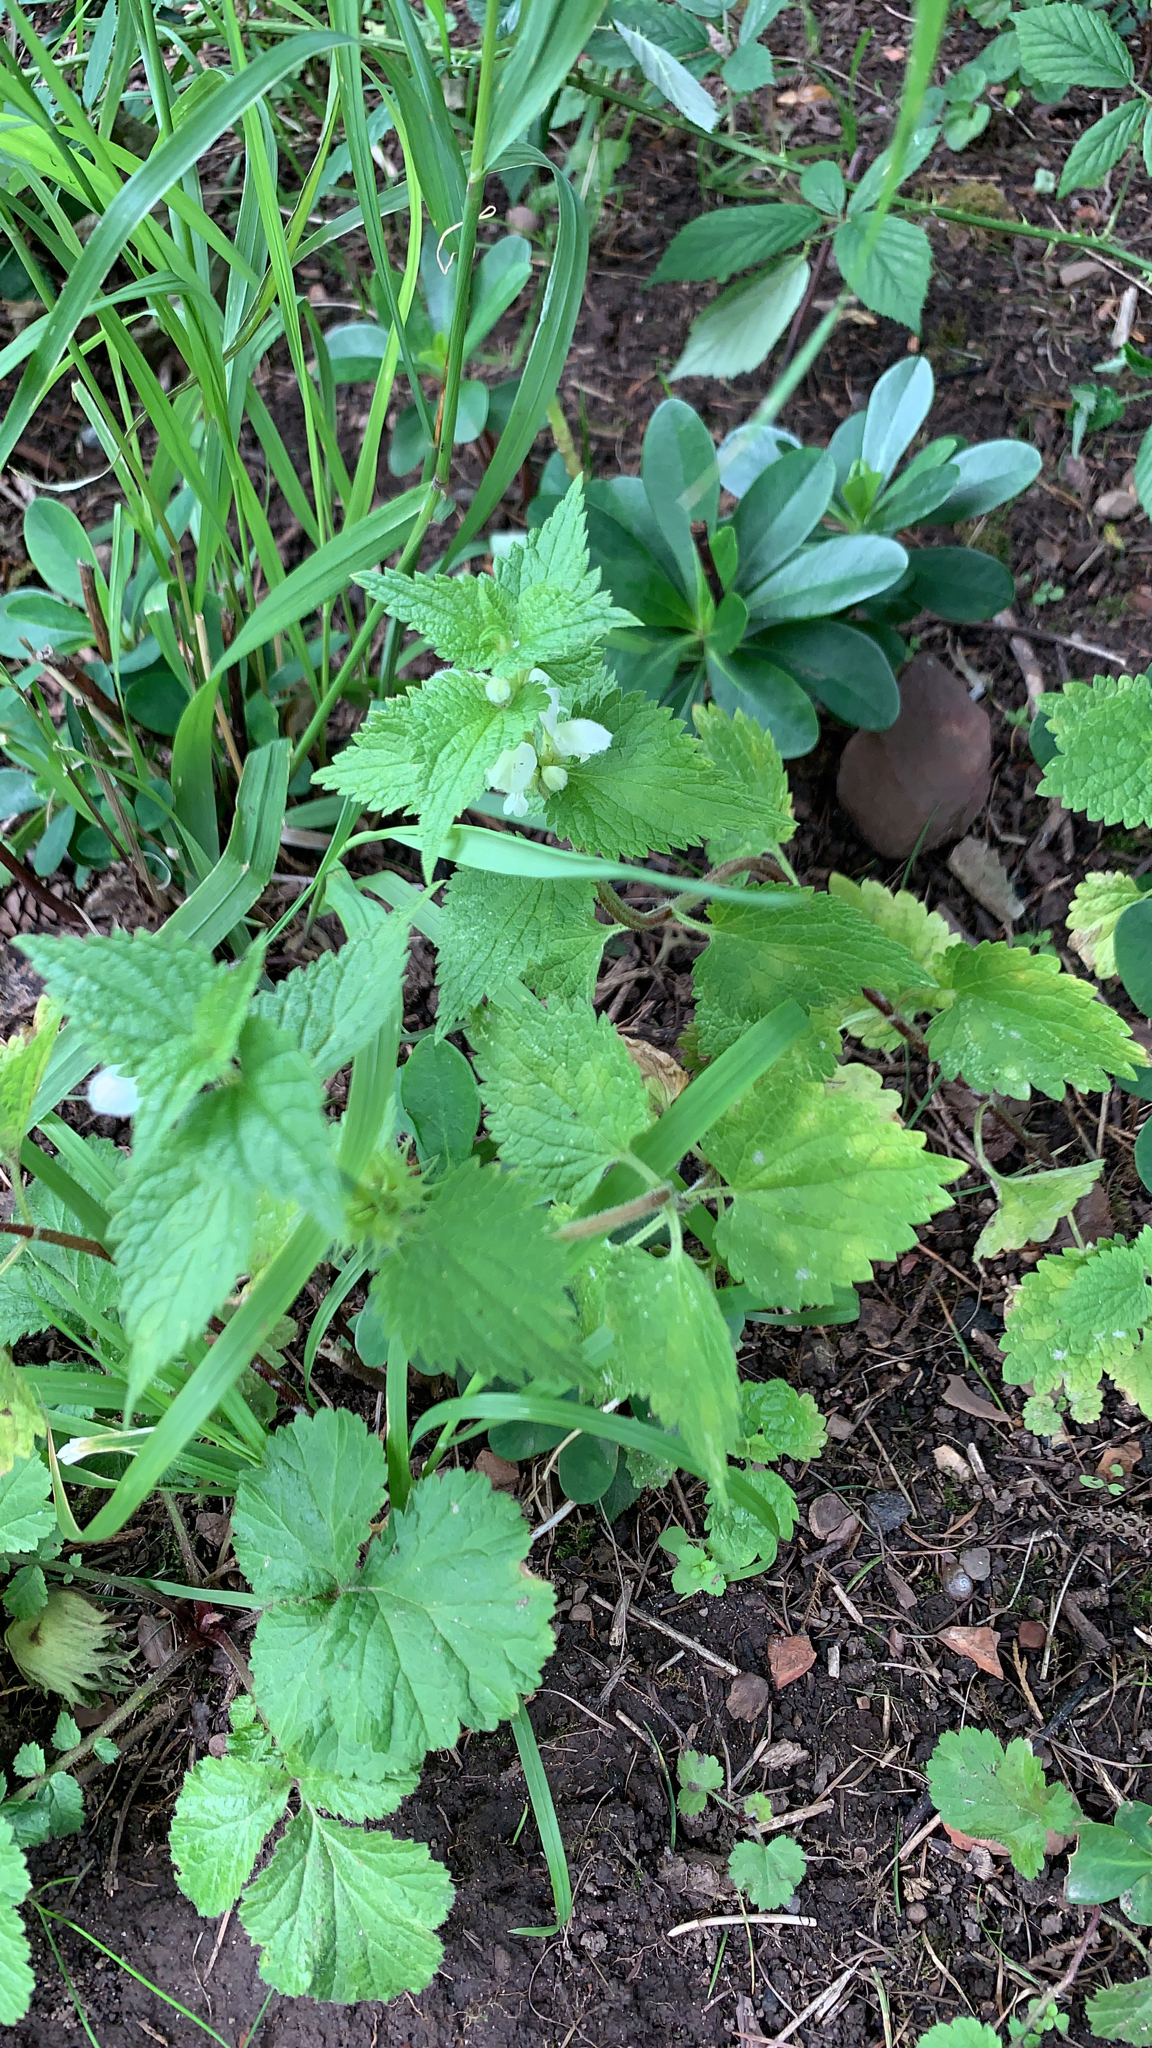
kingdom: Plantae
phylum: Tracheophyta
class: Magnoliopsida
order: Lamiales
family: Lamiaceae
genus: Lamium
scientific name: Lamium album
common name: White dead-nettle
